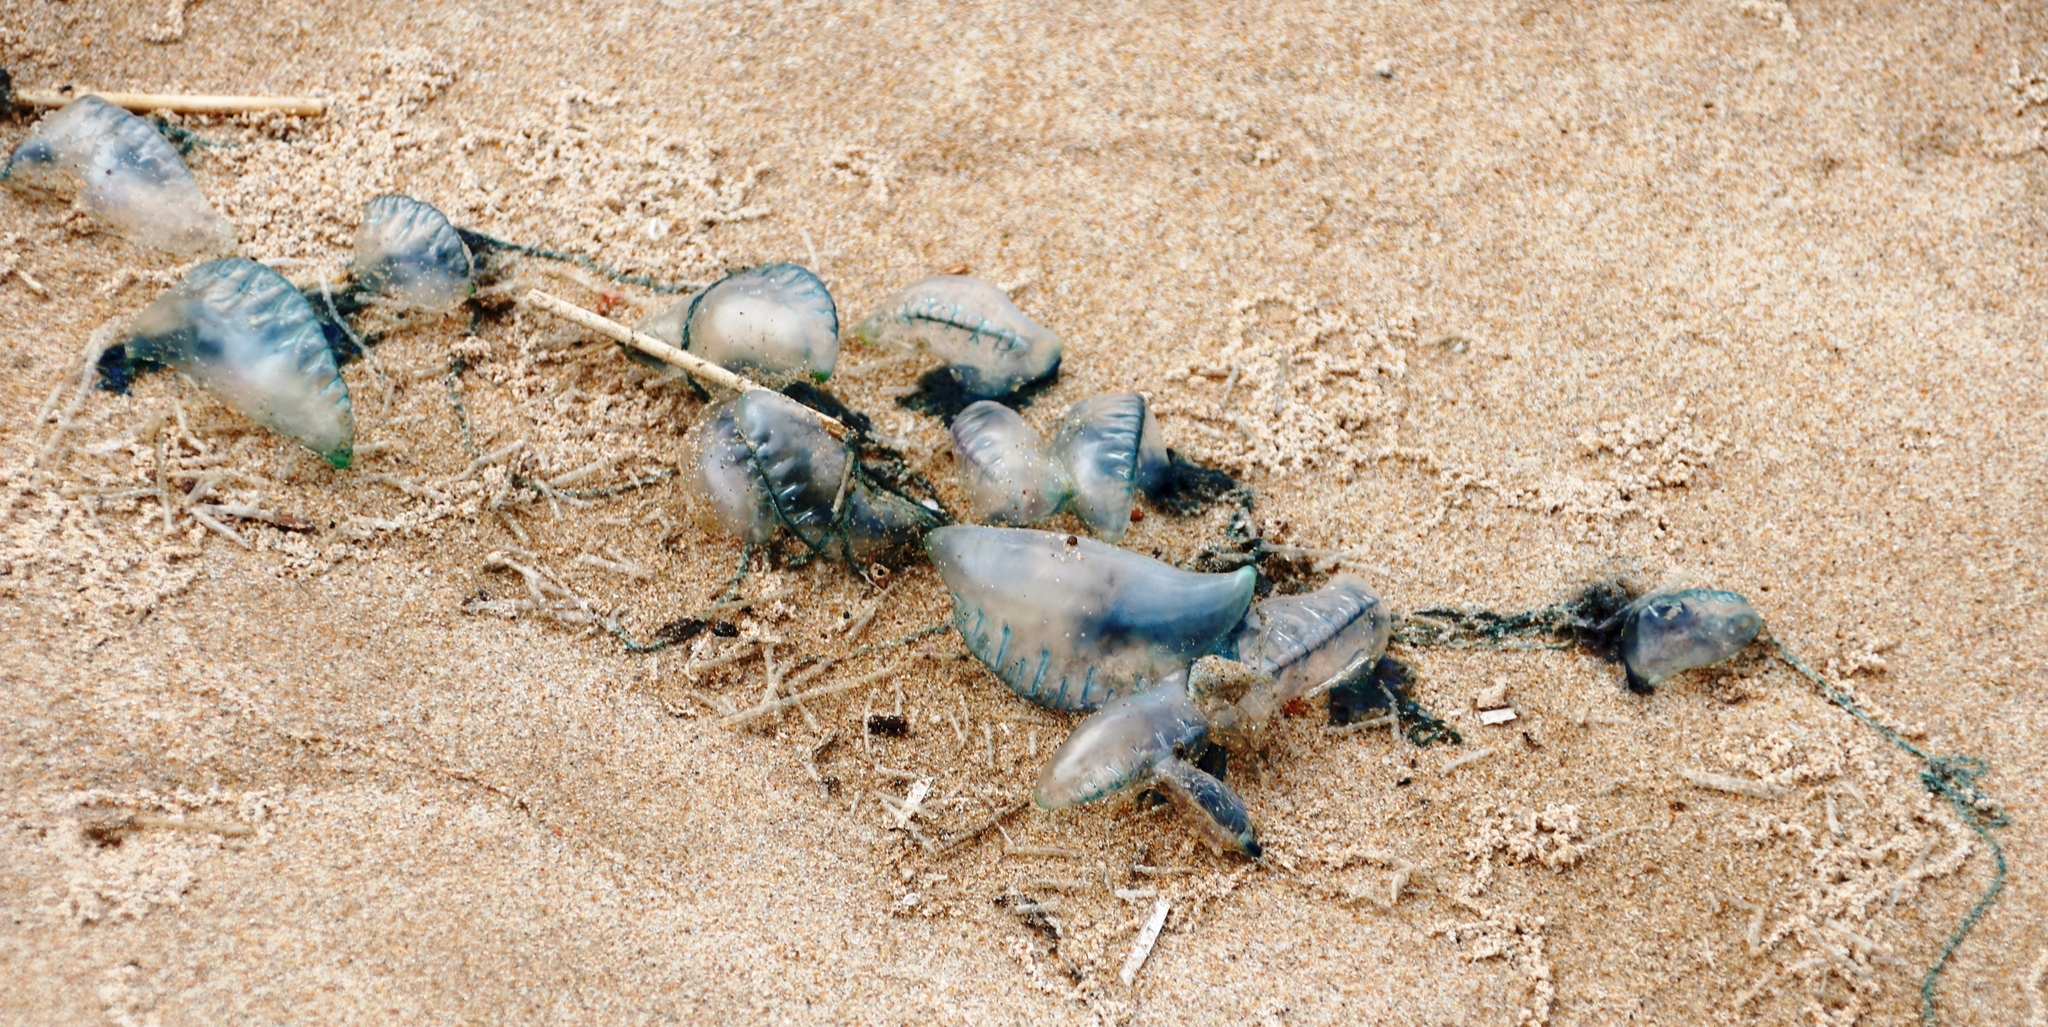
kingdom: Animalia
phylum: Cnidaria
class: Hydrozoa
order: Siphonophorae
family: Physaliidae
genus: Physalia
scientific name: Physalia physalis
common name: Portuguese man-of-war
